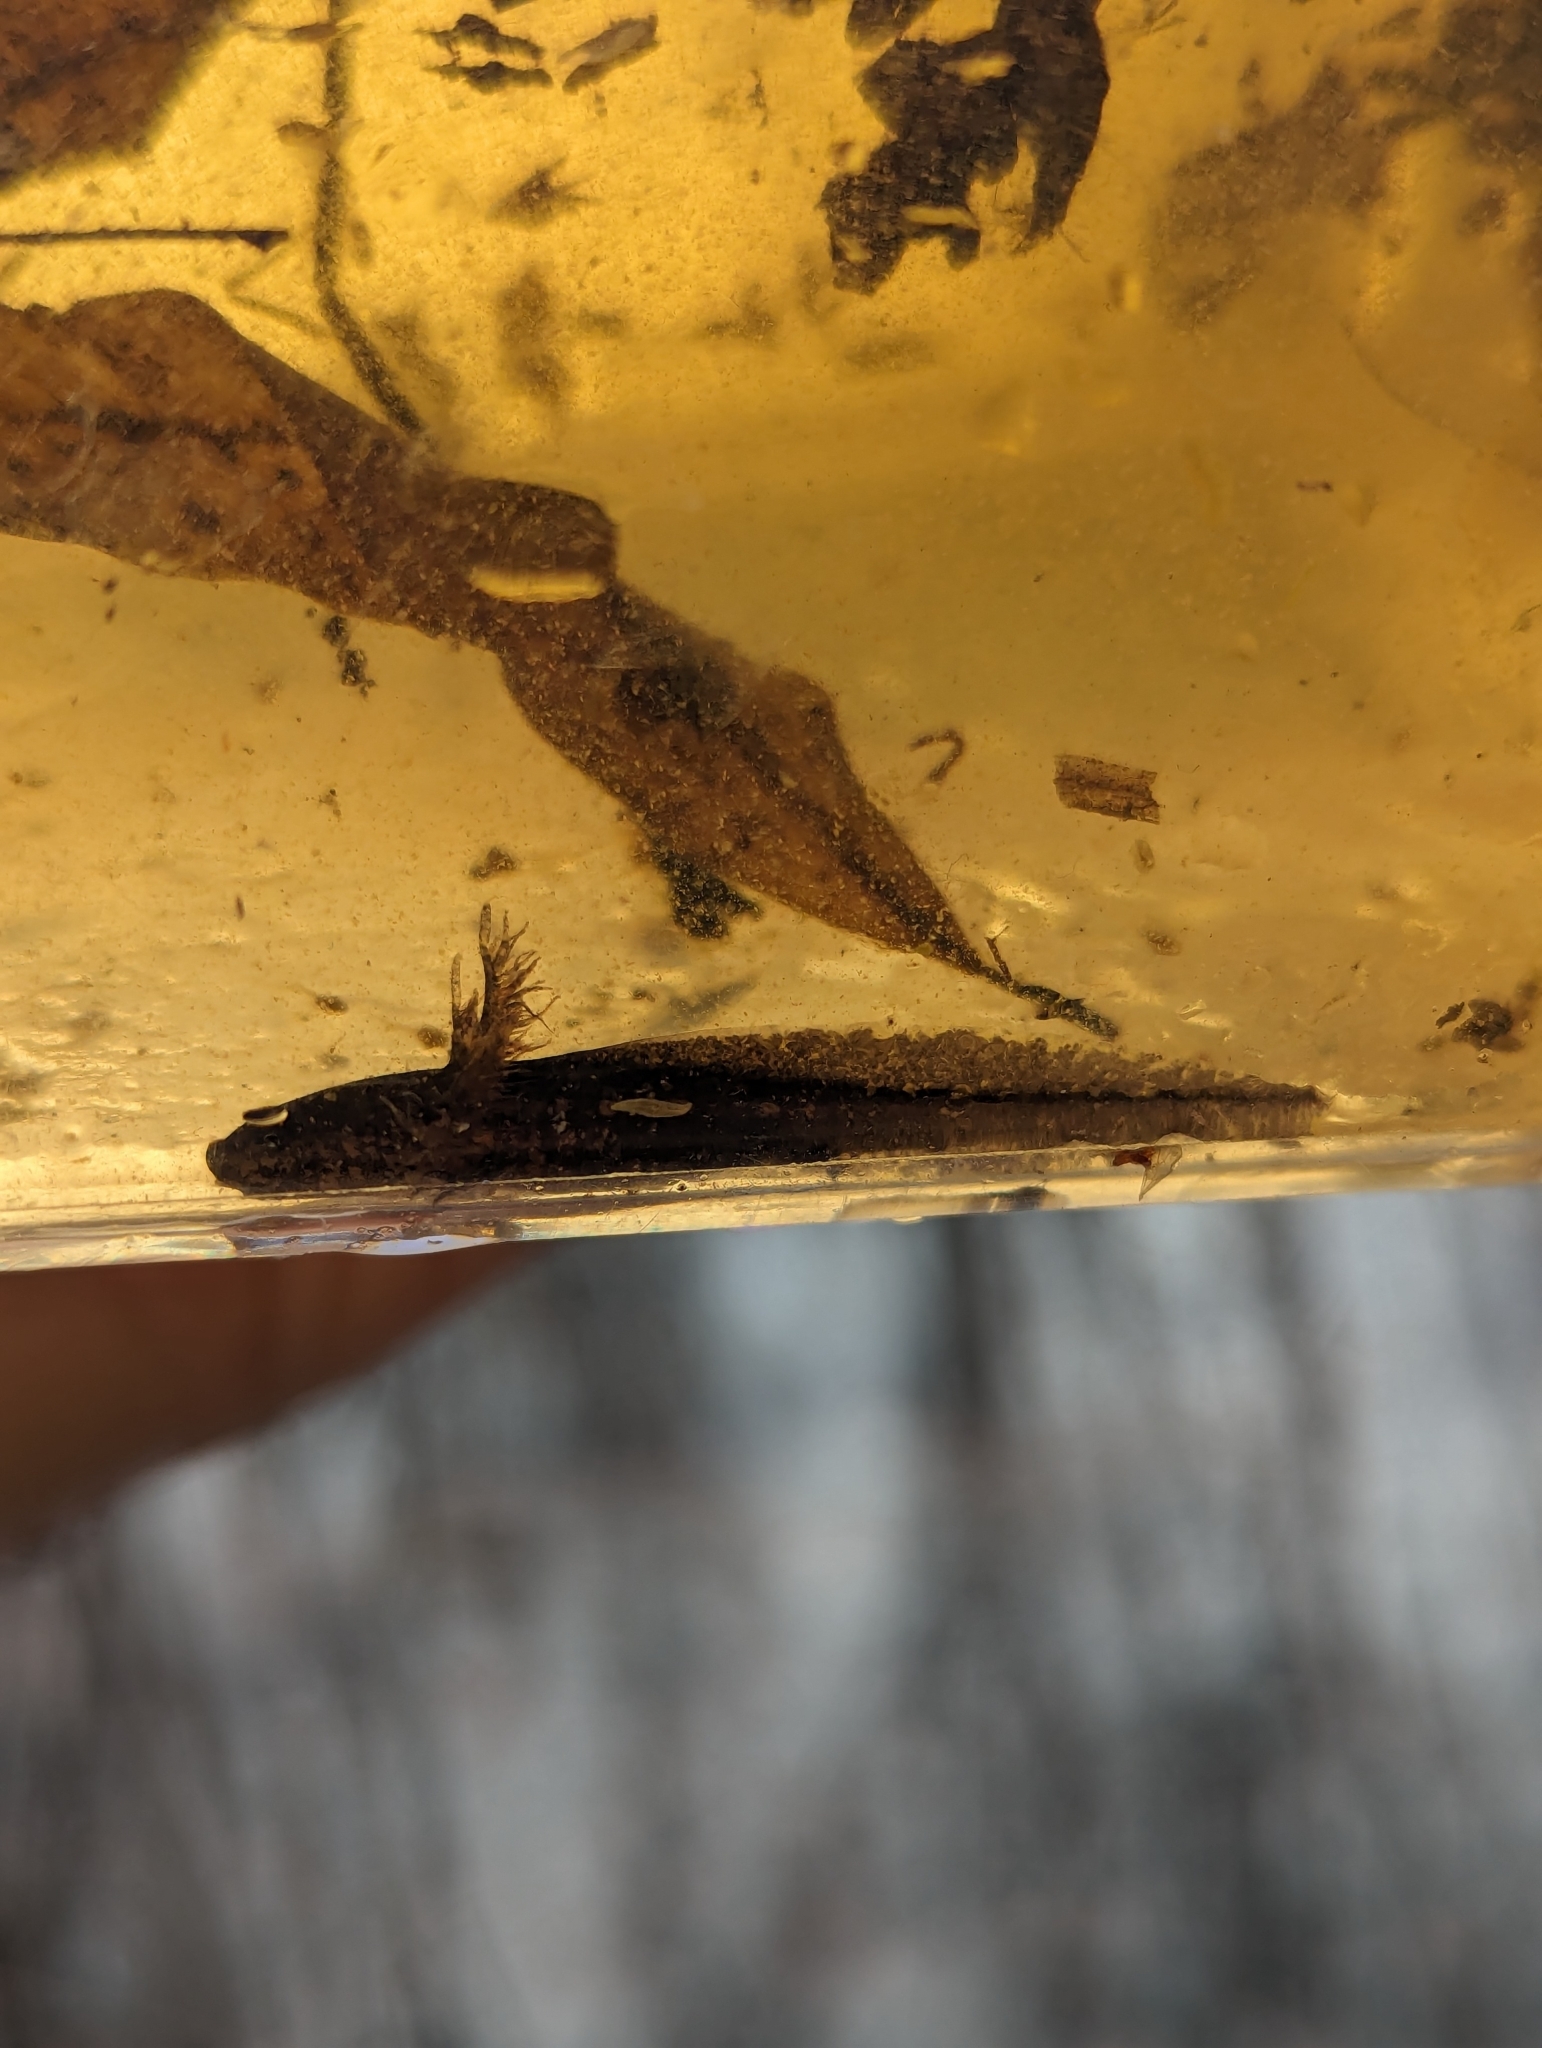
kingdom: Animalia
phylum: Chordata
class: Amphibia
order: Caudata
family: Ambystomatidae
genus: Ambystoma
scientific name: Ambystoma opacum
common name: Marbled salamander
